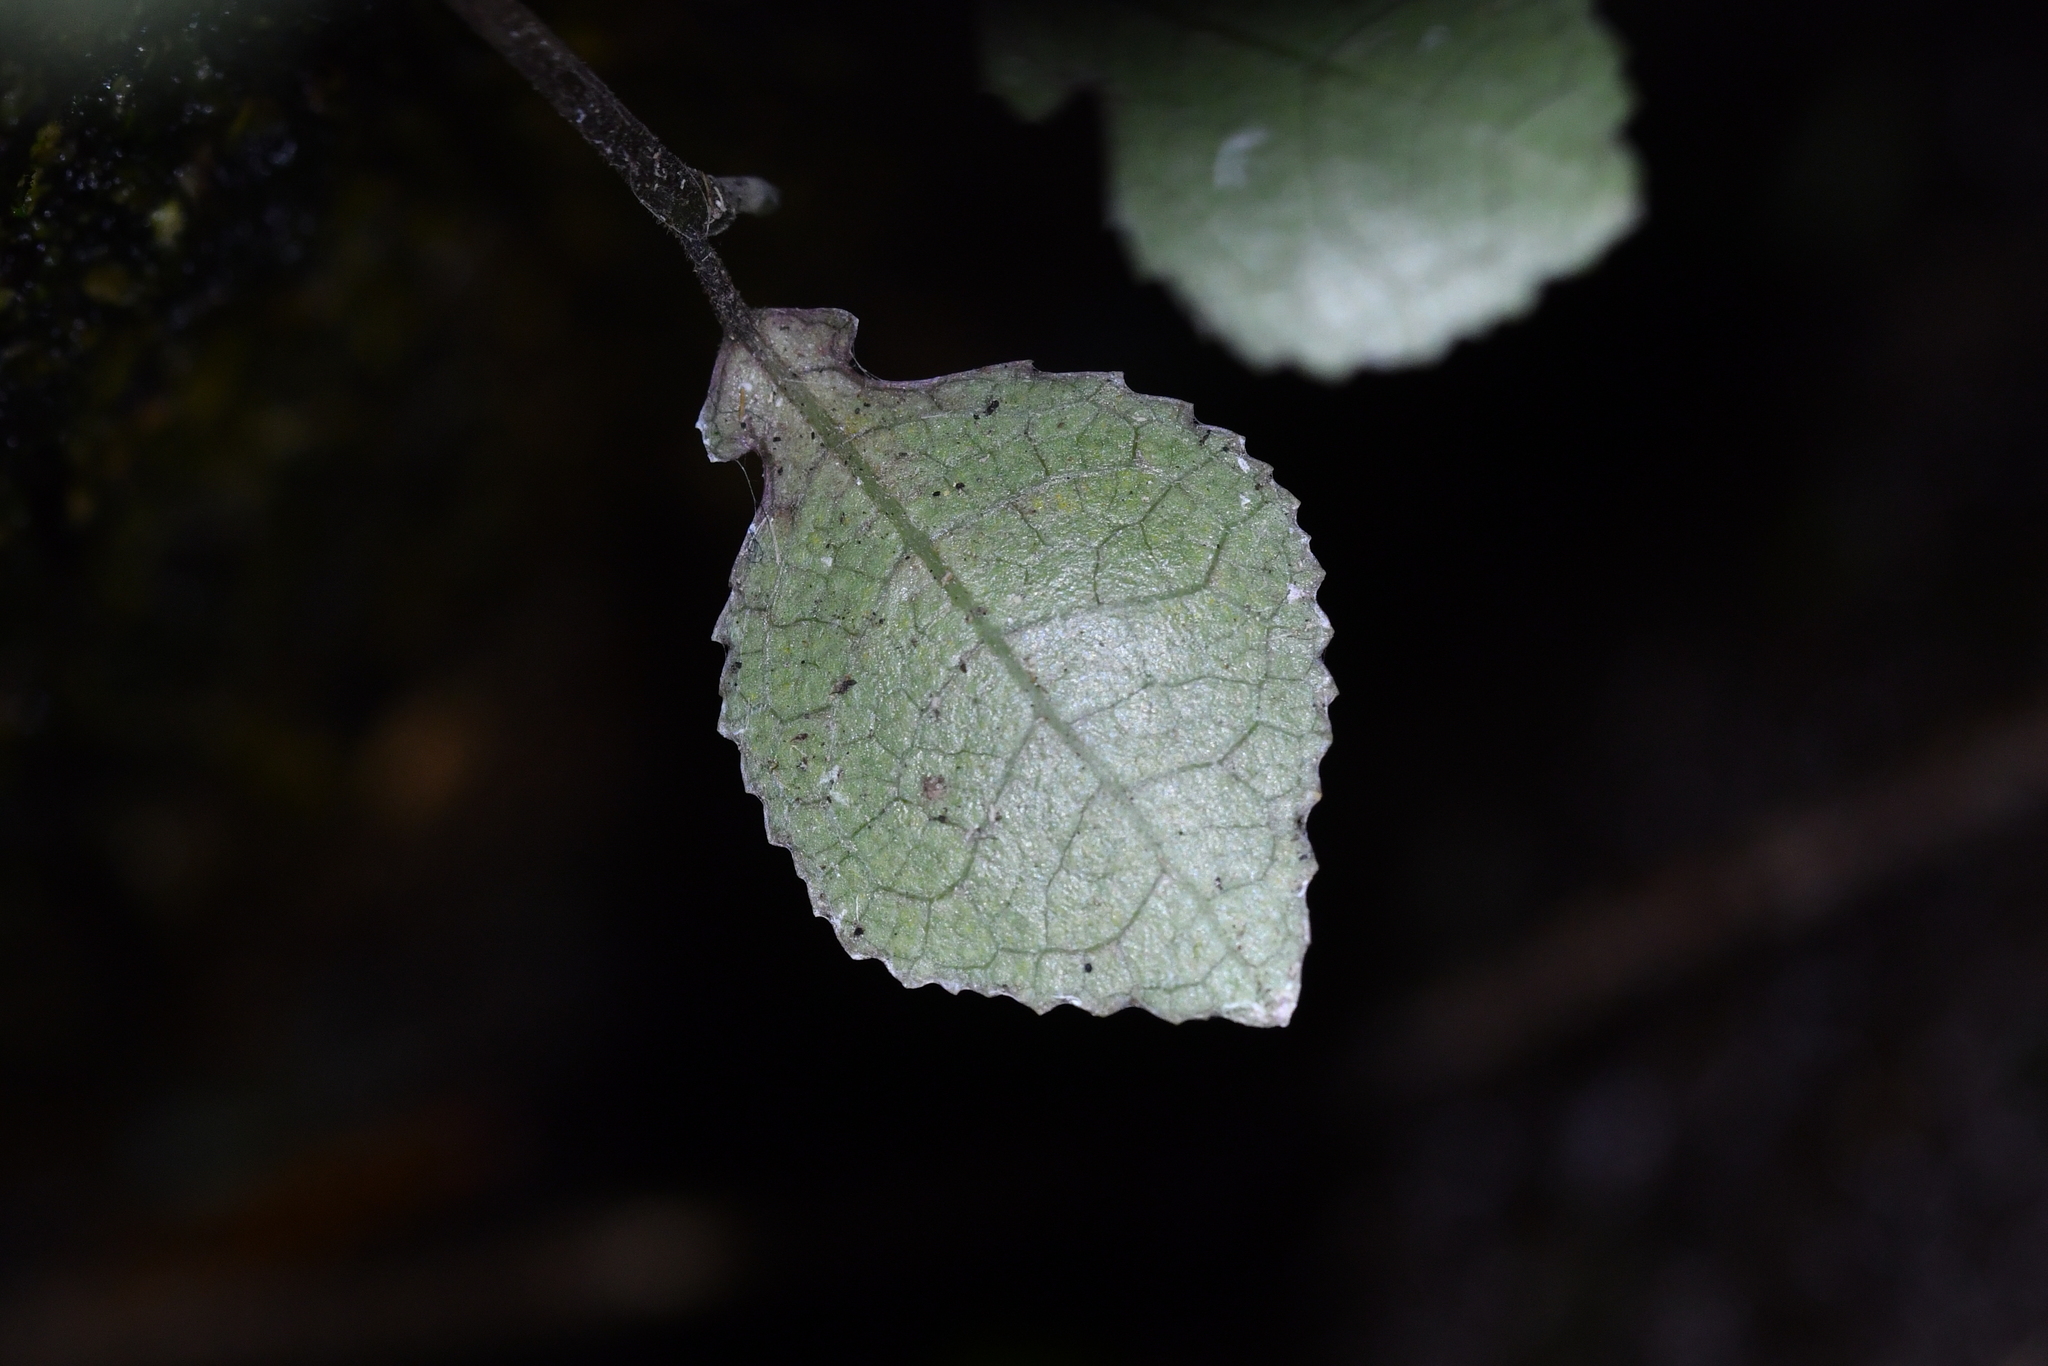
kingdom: Plantae
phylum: Tracheophyta
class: Magnoliopsida
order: Rosales
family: Moraceae
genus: Paratrophis
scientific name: Paratrophis microphylla
